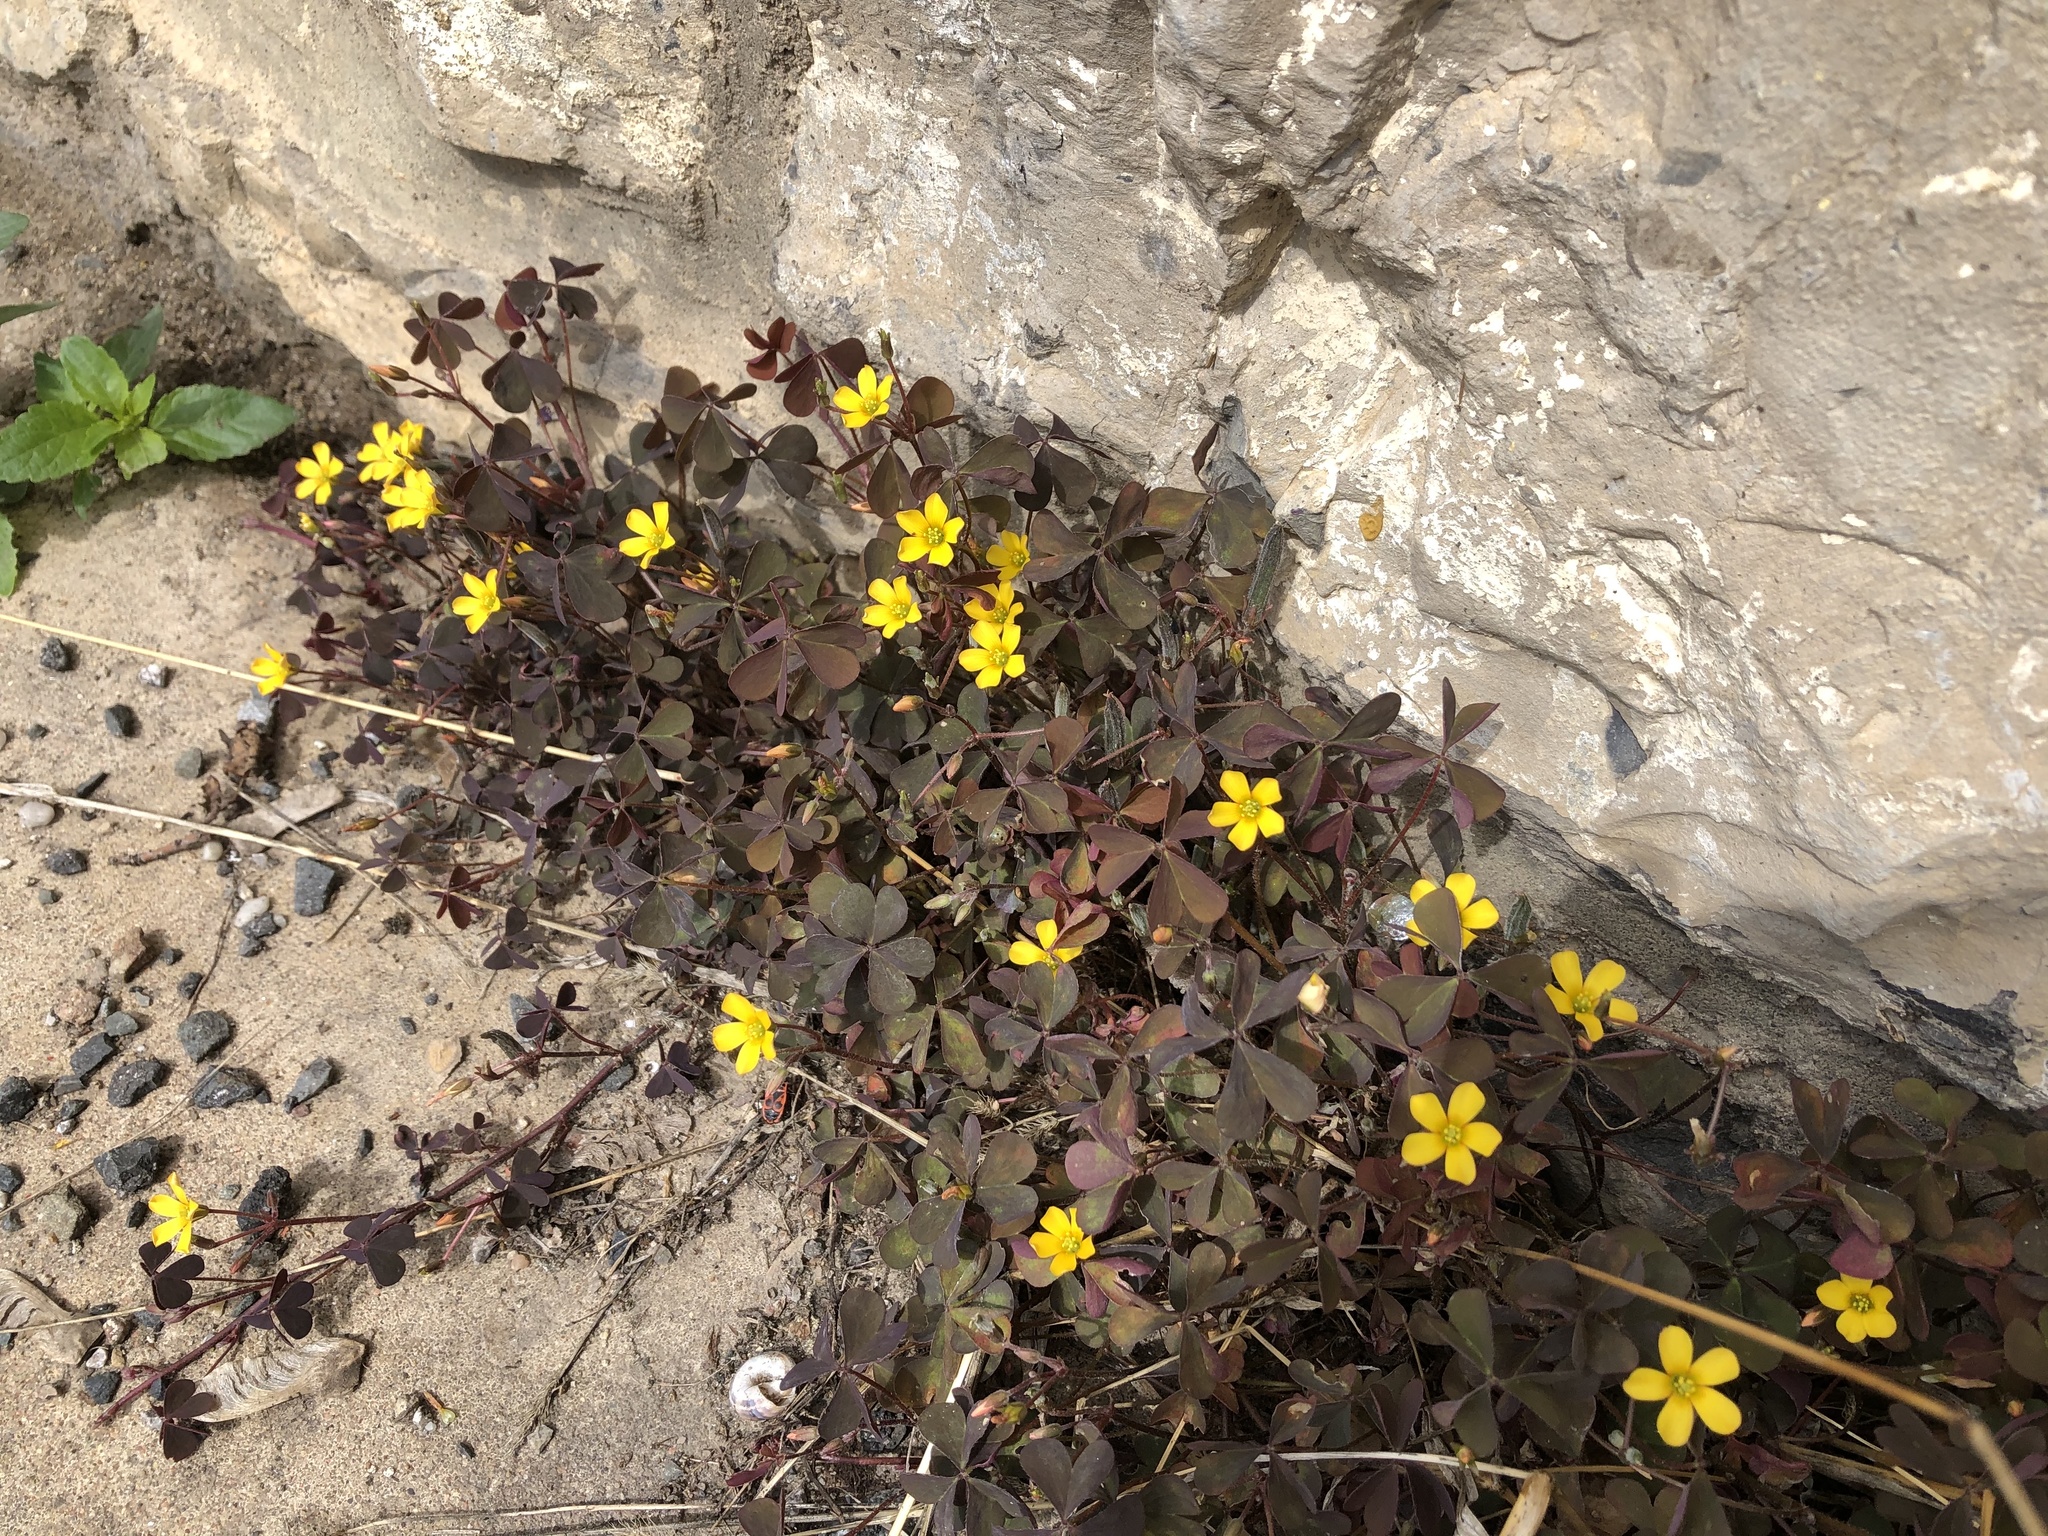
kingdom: Plantae
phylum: Tracheophyta
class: Magnoliopsida
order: Oxalidales
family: Oxalidaceae
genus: Oxalis
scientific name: Oxalis corniculata
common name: Procumbent yellow-sorrel
